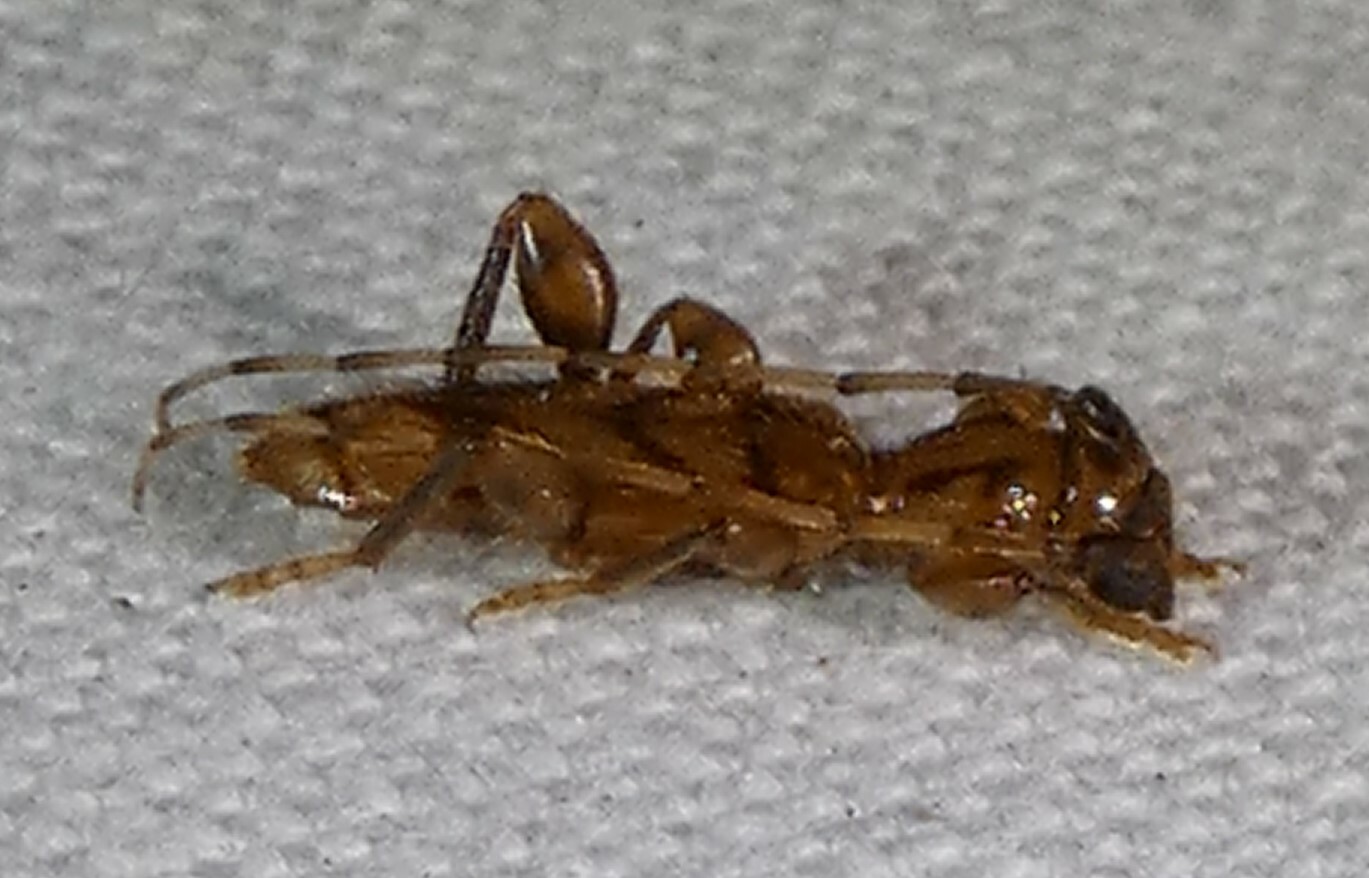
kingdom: Animalia
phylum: Arthropoda
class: Insecta
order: Coleoptera
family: Cerambycidae
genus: Obrium
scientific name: Obrium maculatum
